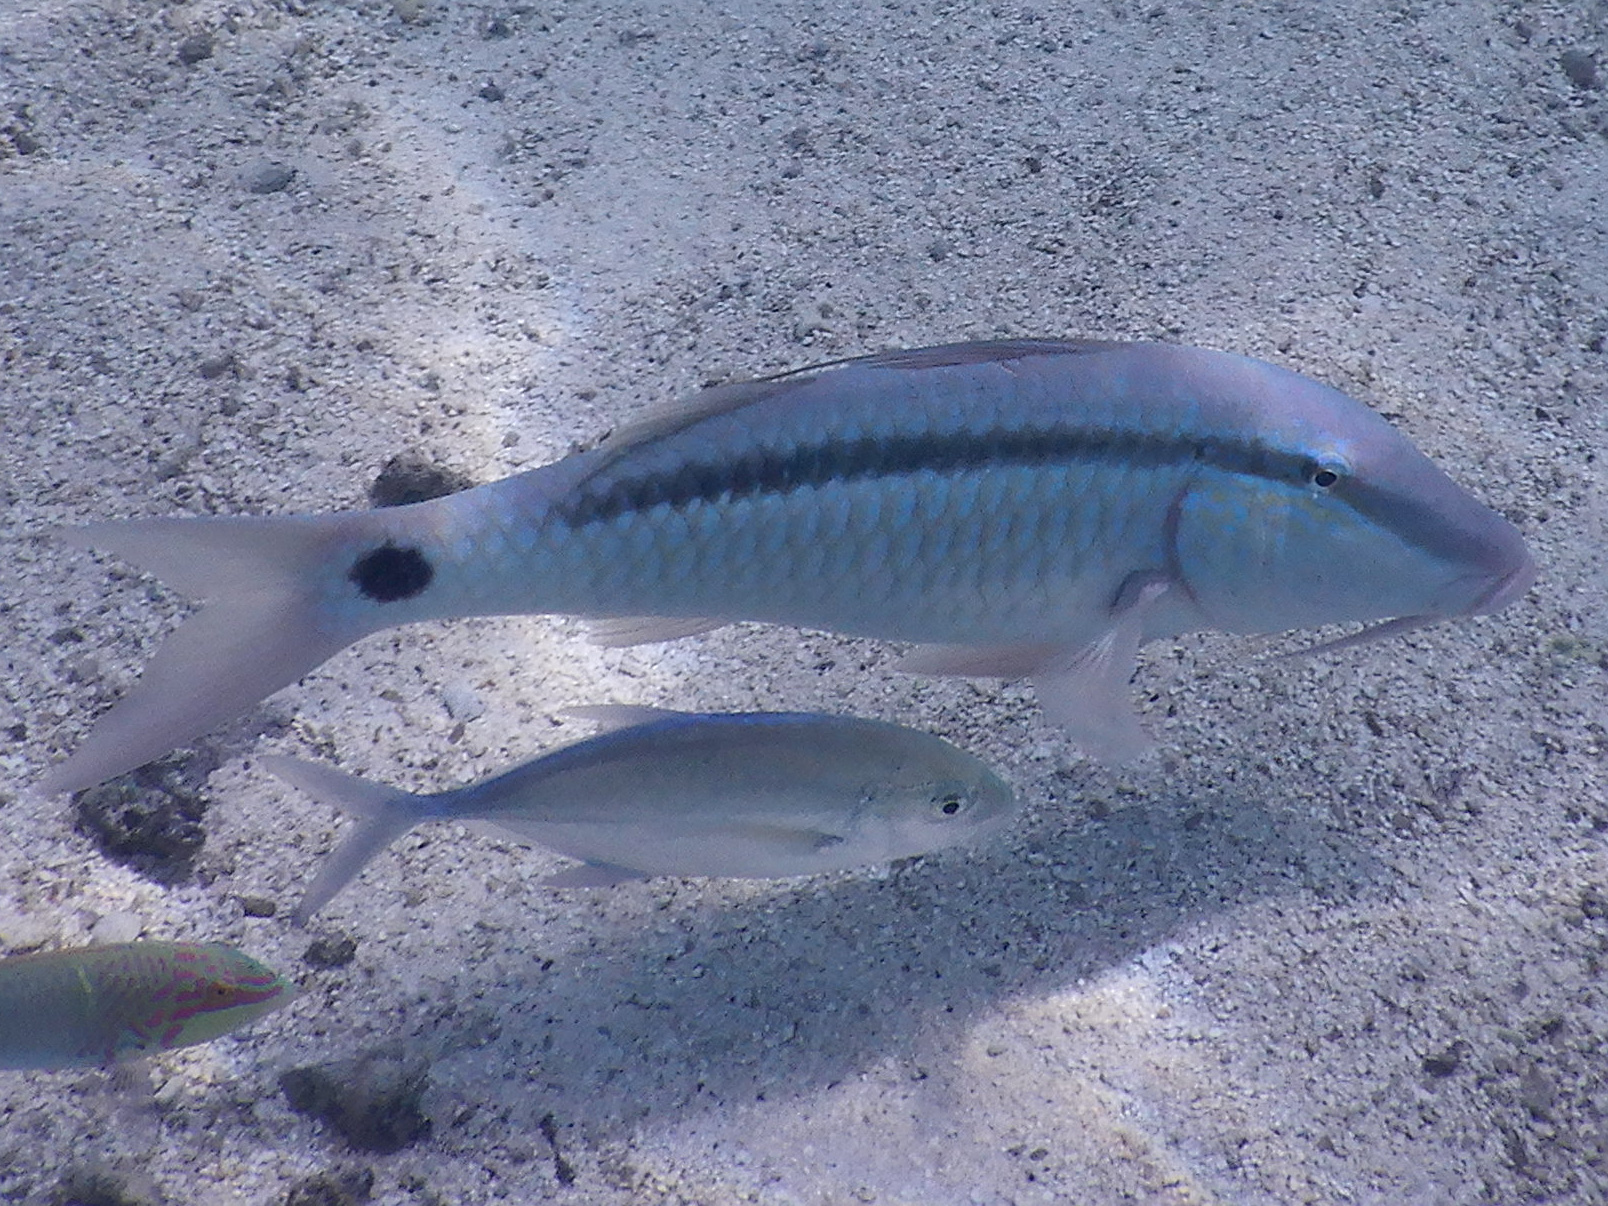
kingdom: Animalia
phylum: Chordata
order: Perciformes
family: Mullidae
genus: Parupeneus
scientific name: Parupeneus barberinus
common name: Dash-and-dot goatfish
